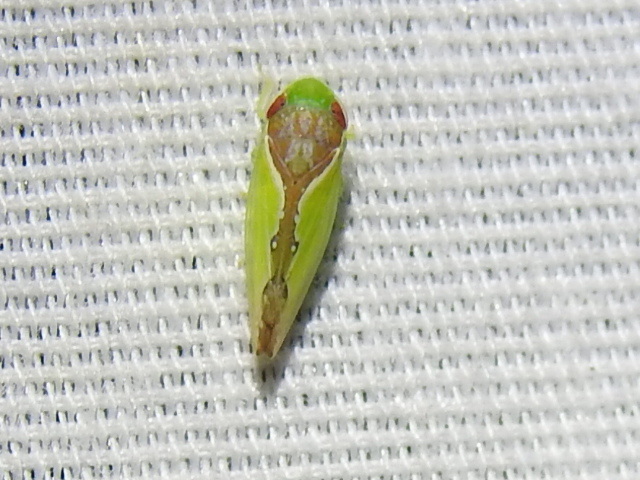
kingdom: Animalia
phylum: Arthropoda
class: Insecta
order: Hemiptera
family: Cicadellidae
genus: Omansobara ing
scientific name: Omansobara ing Omansobara palliolata
